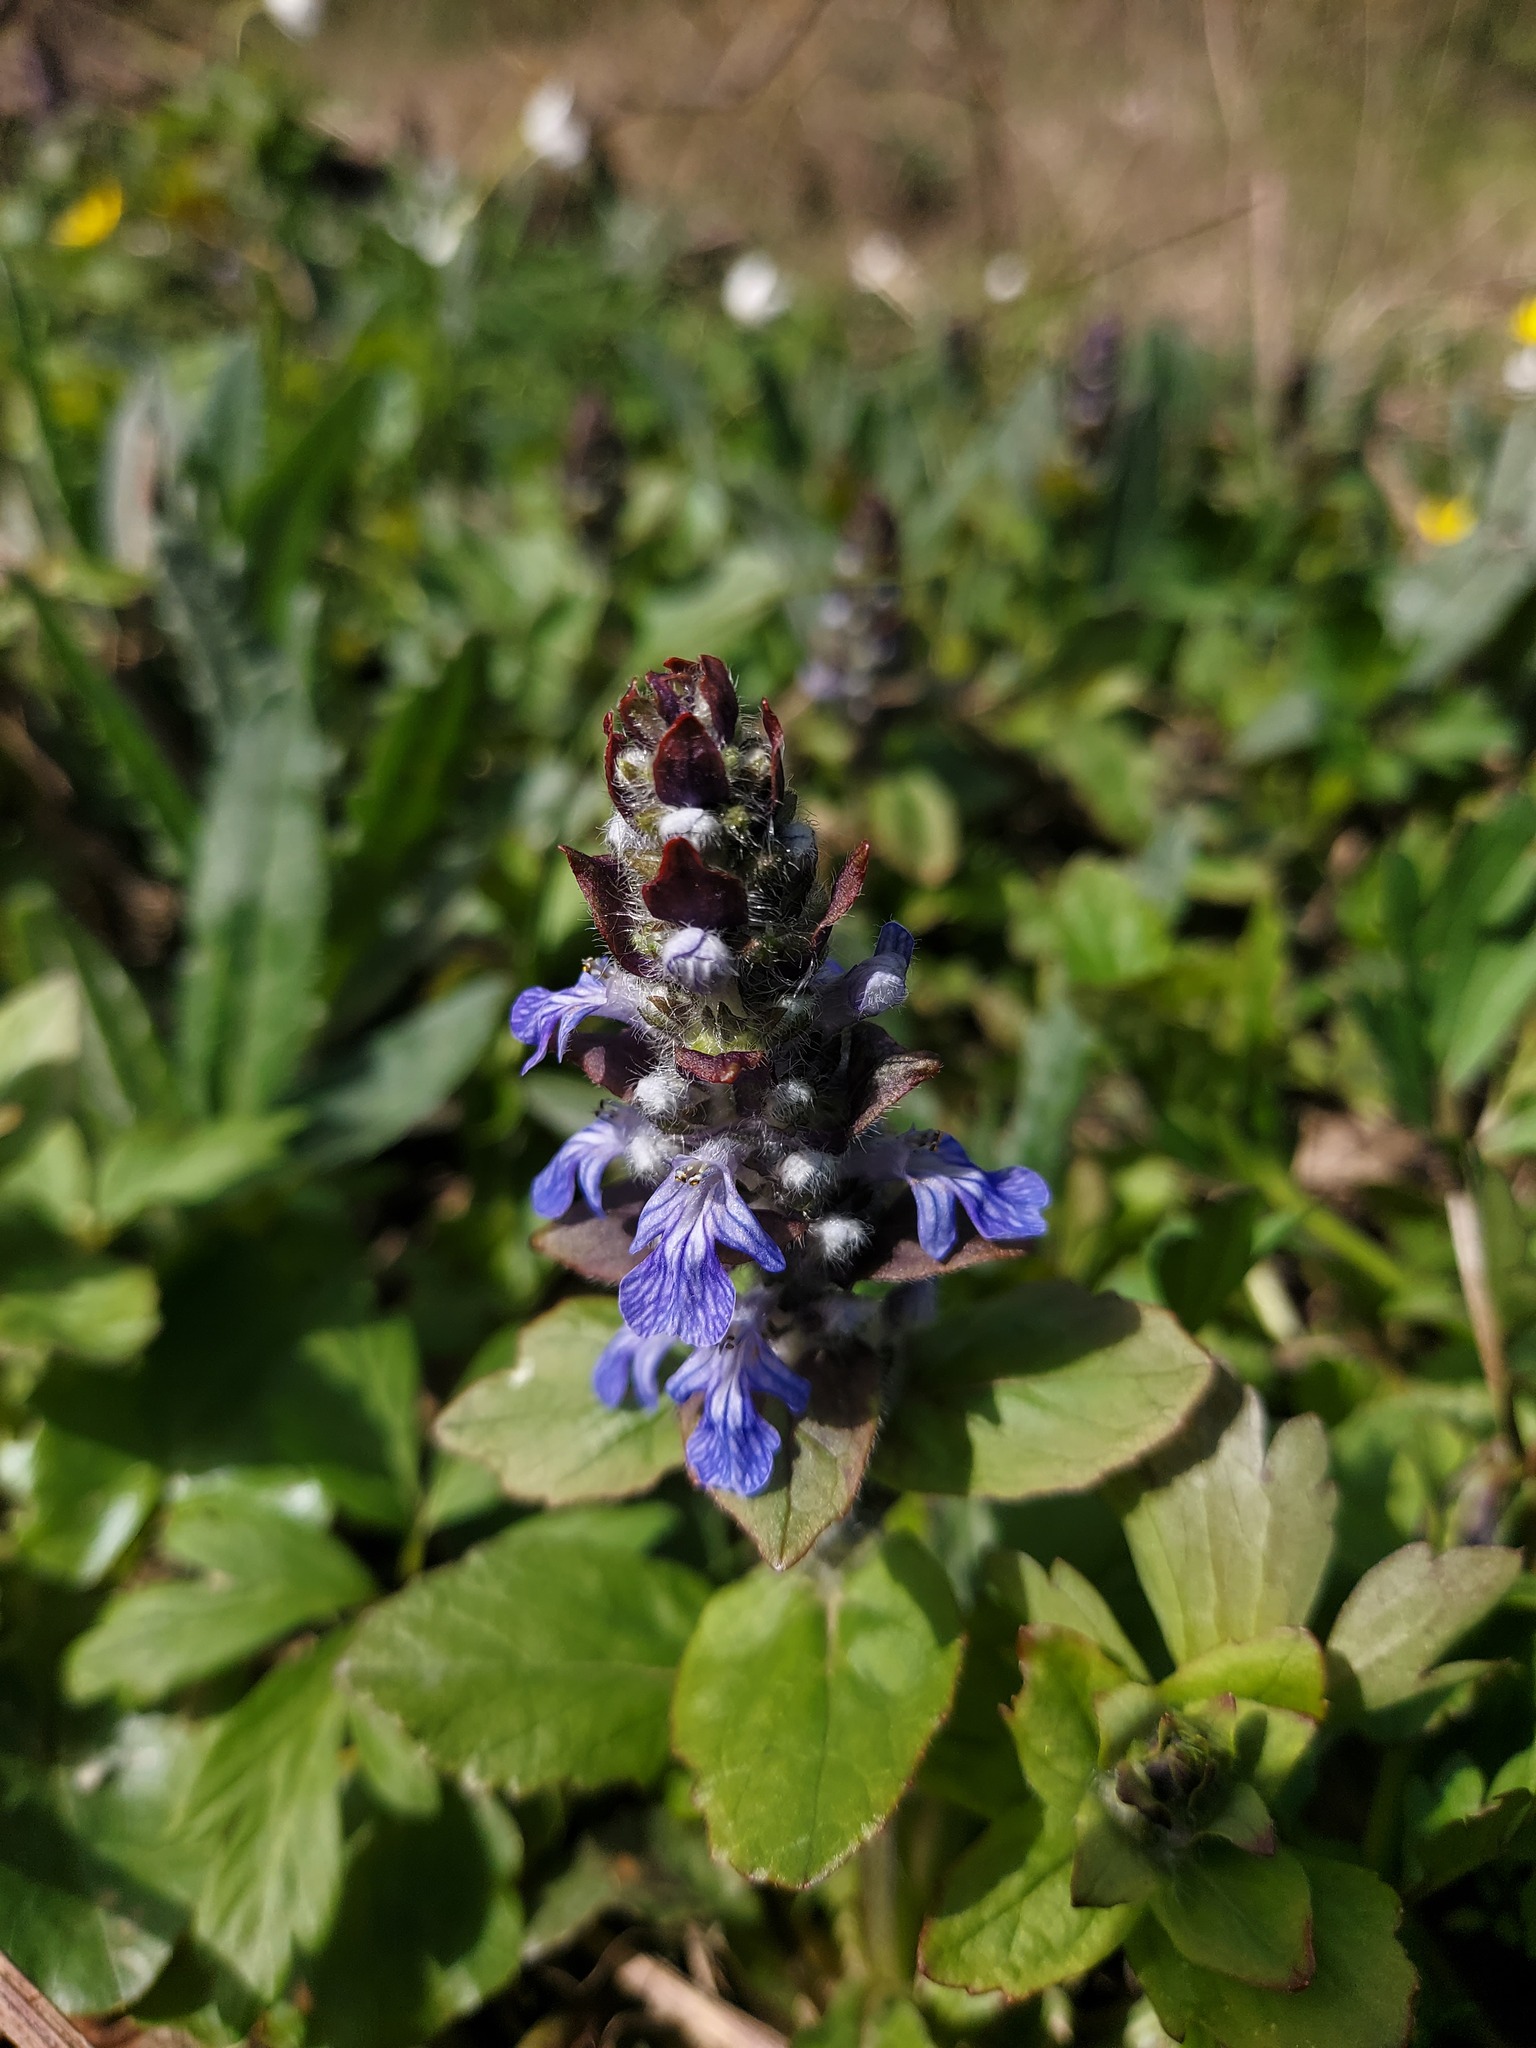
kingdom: Plantae
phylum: Tracheophyta
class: Magnoliopsida
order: Lamiales
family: Lamiaceae
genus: Ajuga
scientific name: Ajuga reptans
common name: Bugle
